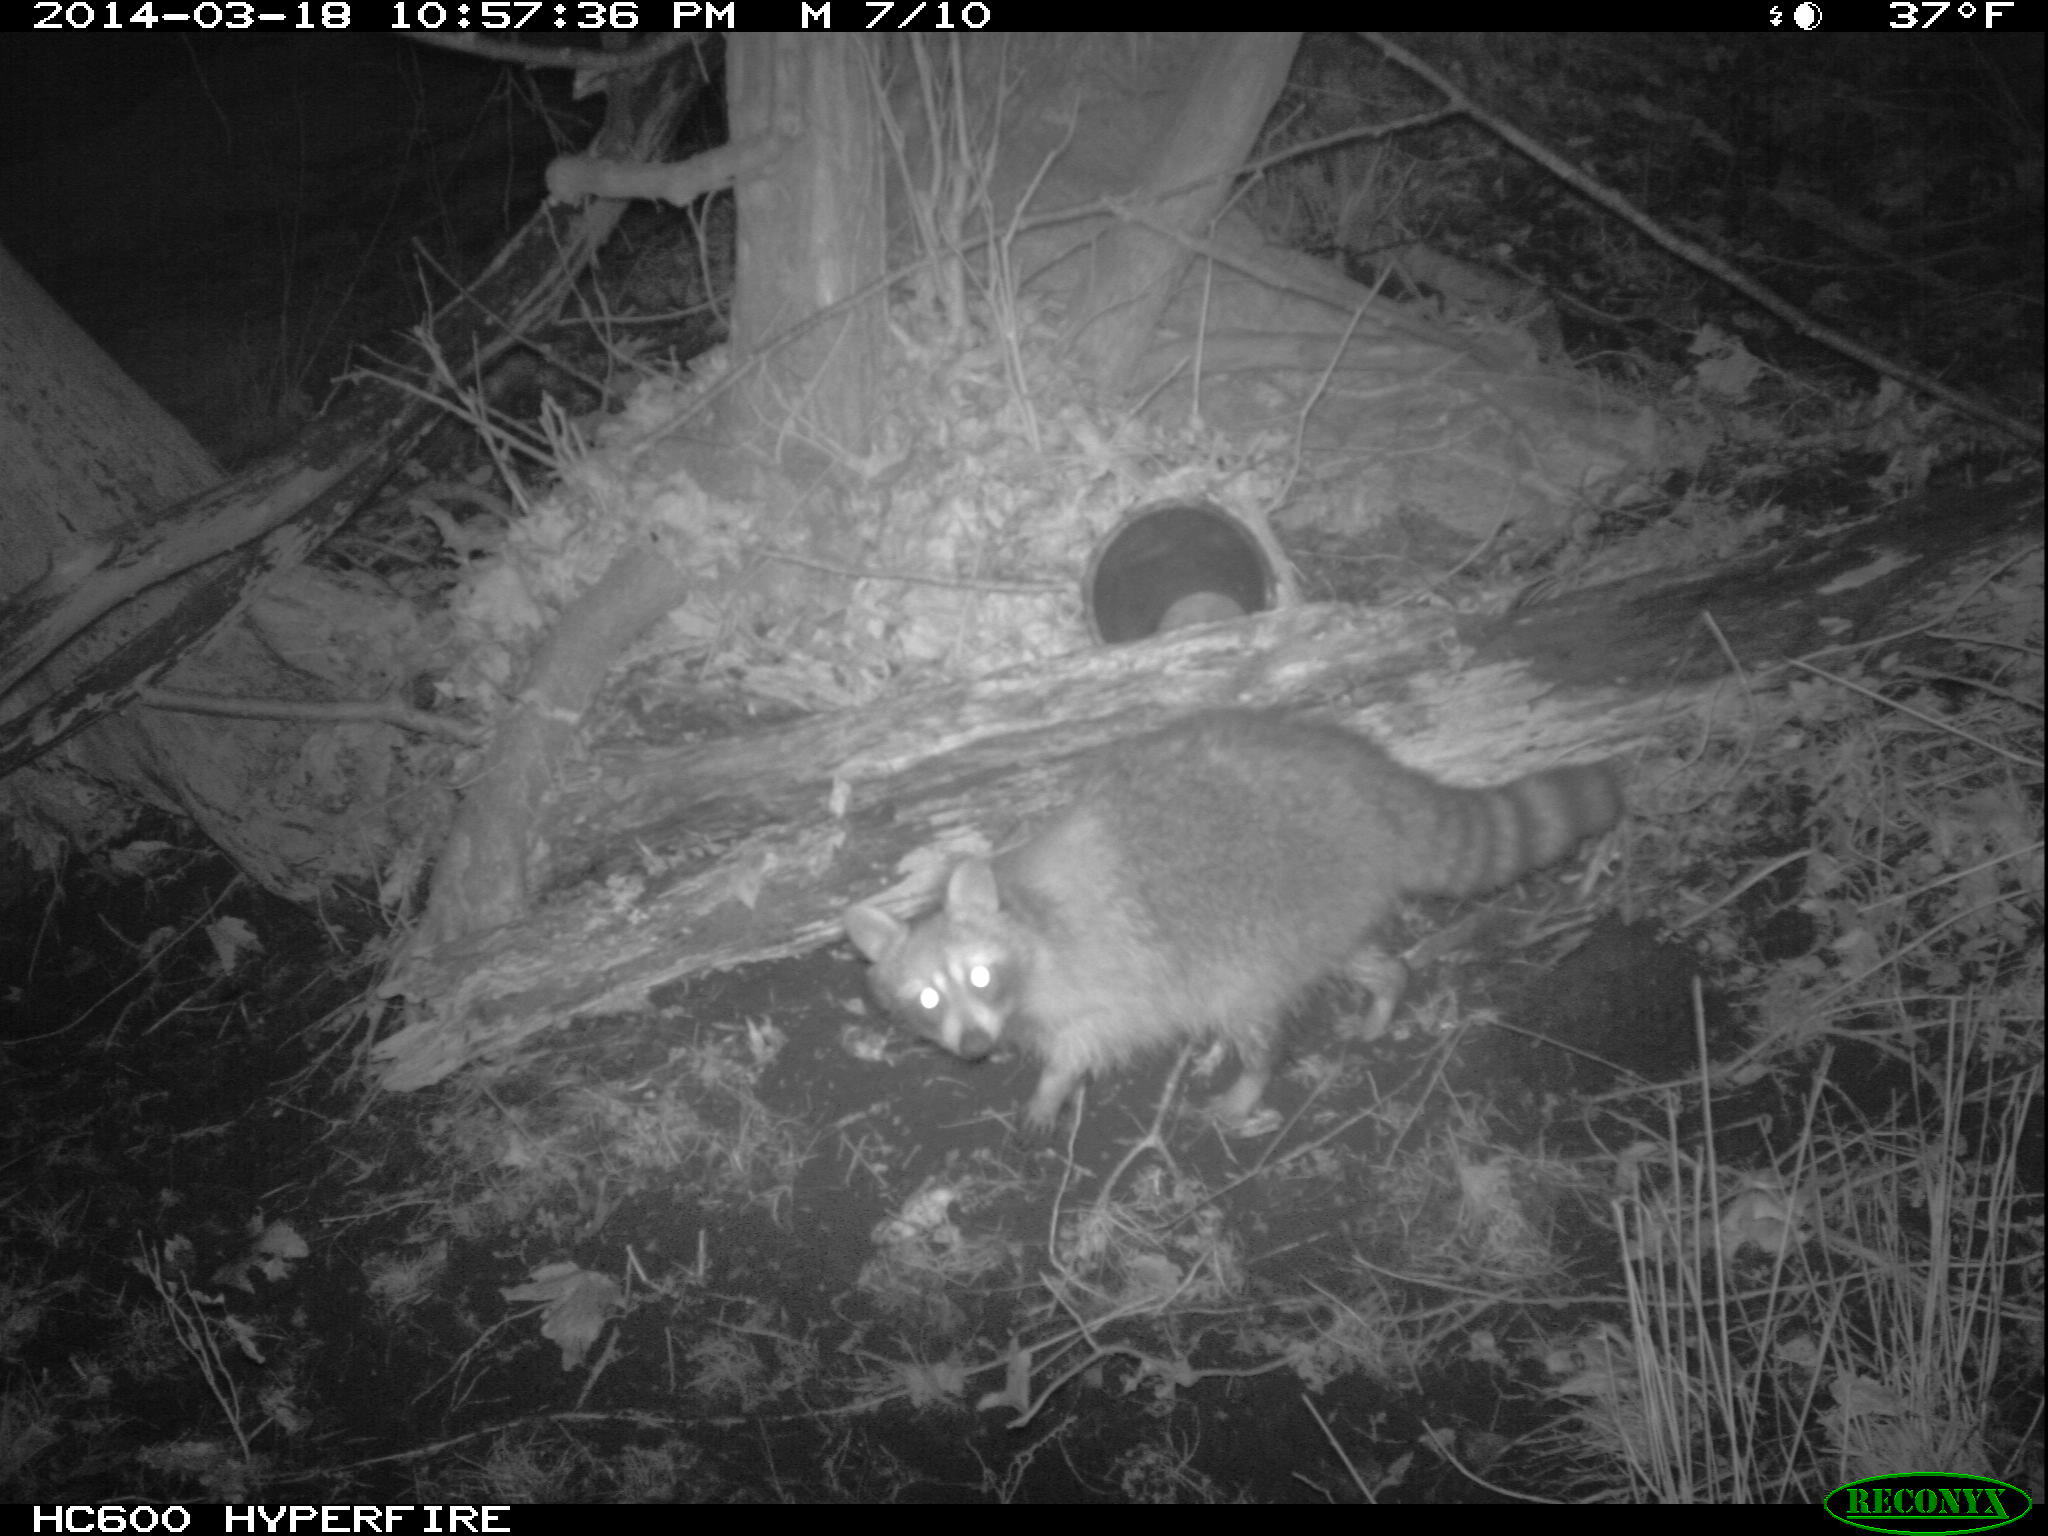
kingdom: Animalia
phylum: Chordata
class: Mammalia
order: Carnivora
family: Procyonidae
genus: Procyon
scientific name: Procyon lotor
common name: Raccoon
